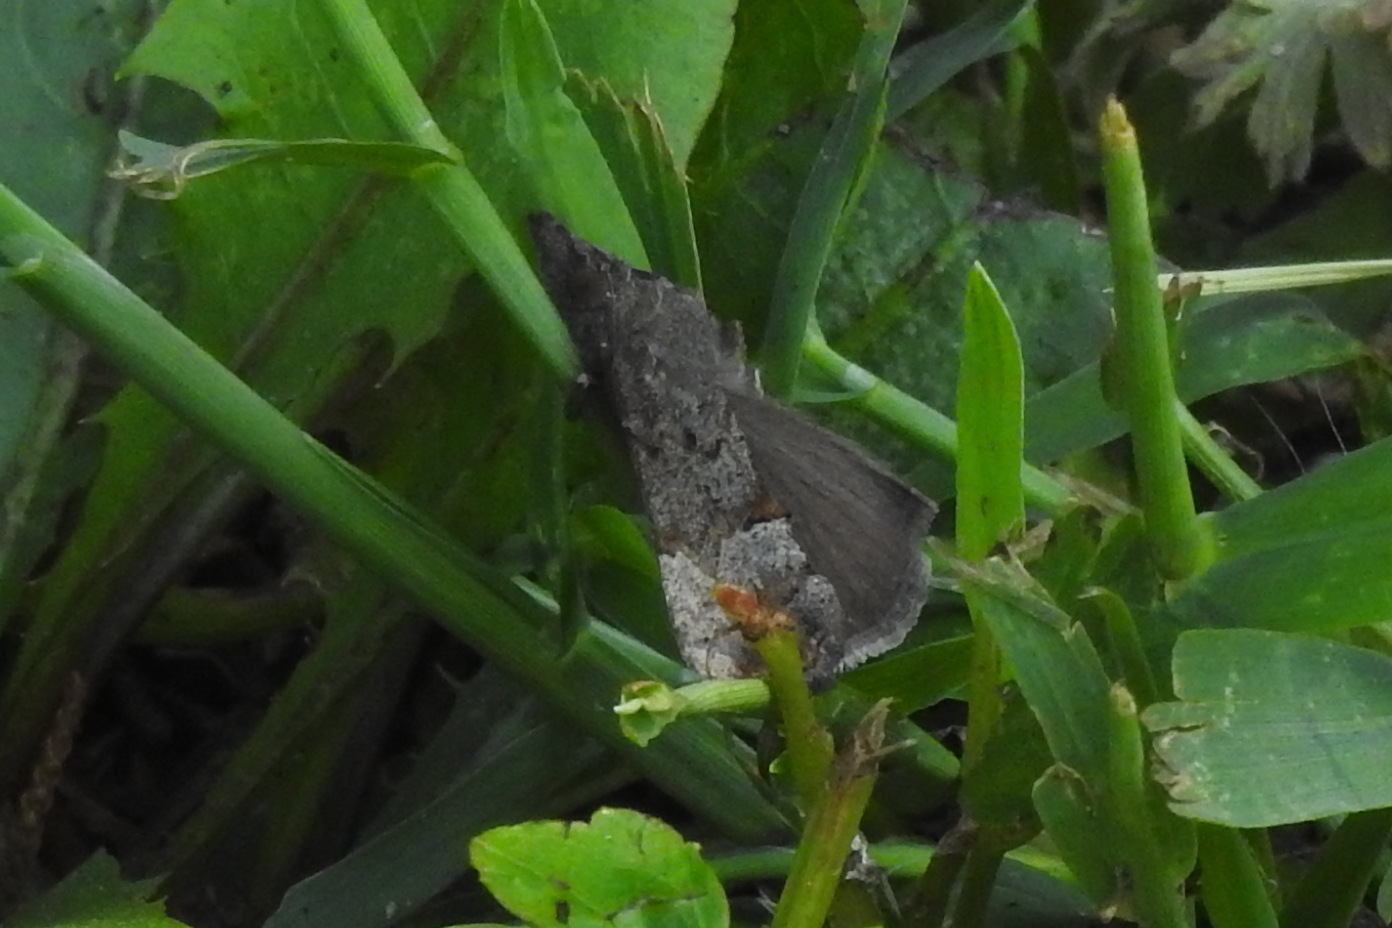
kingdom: Animalia
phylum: Arthropoda
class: Insecta
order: Lepidoptera
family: Erebidae
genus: Hypena
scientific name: Hypena scabra
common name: Green cloverworm
